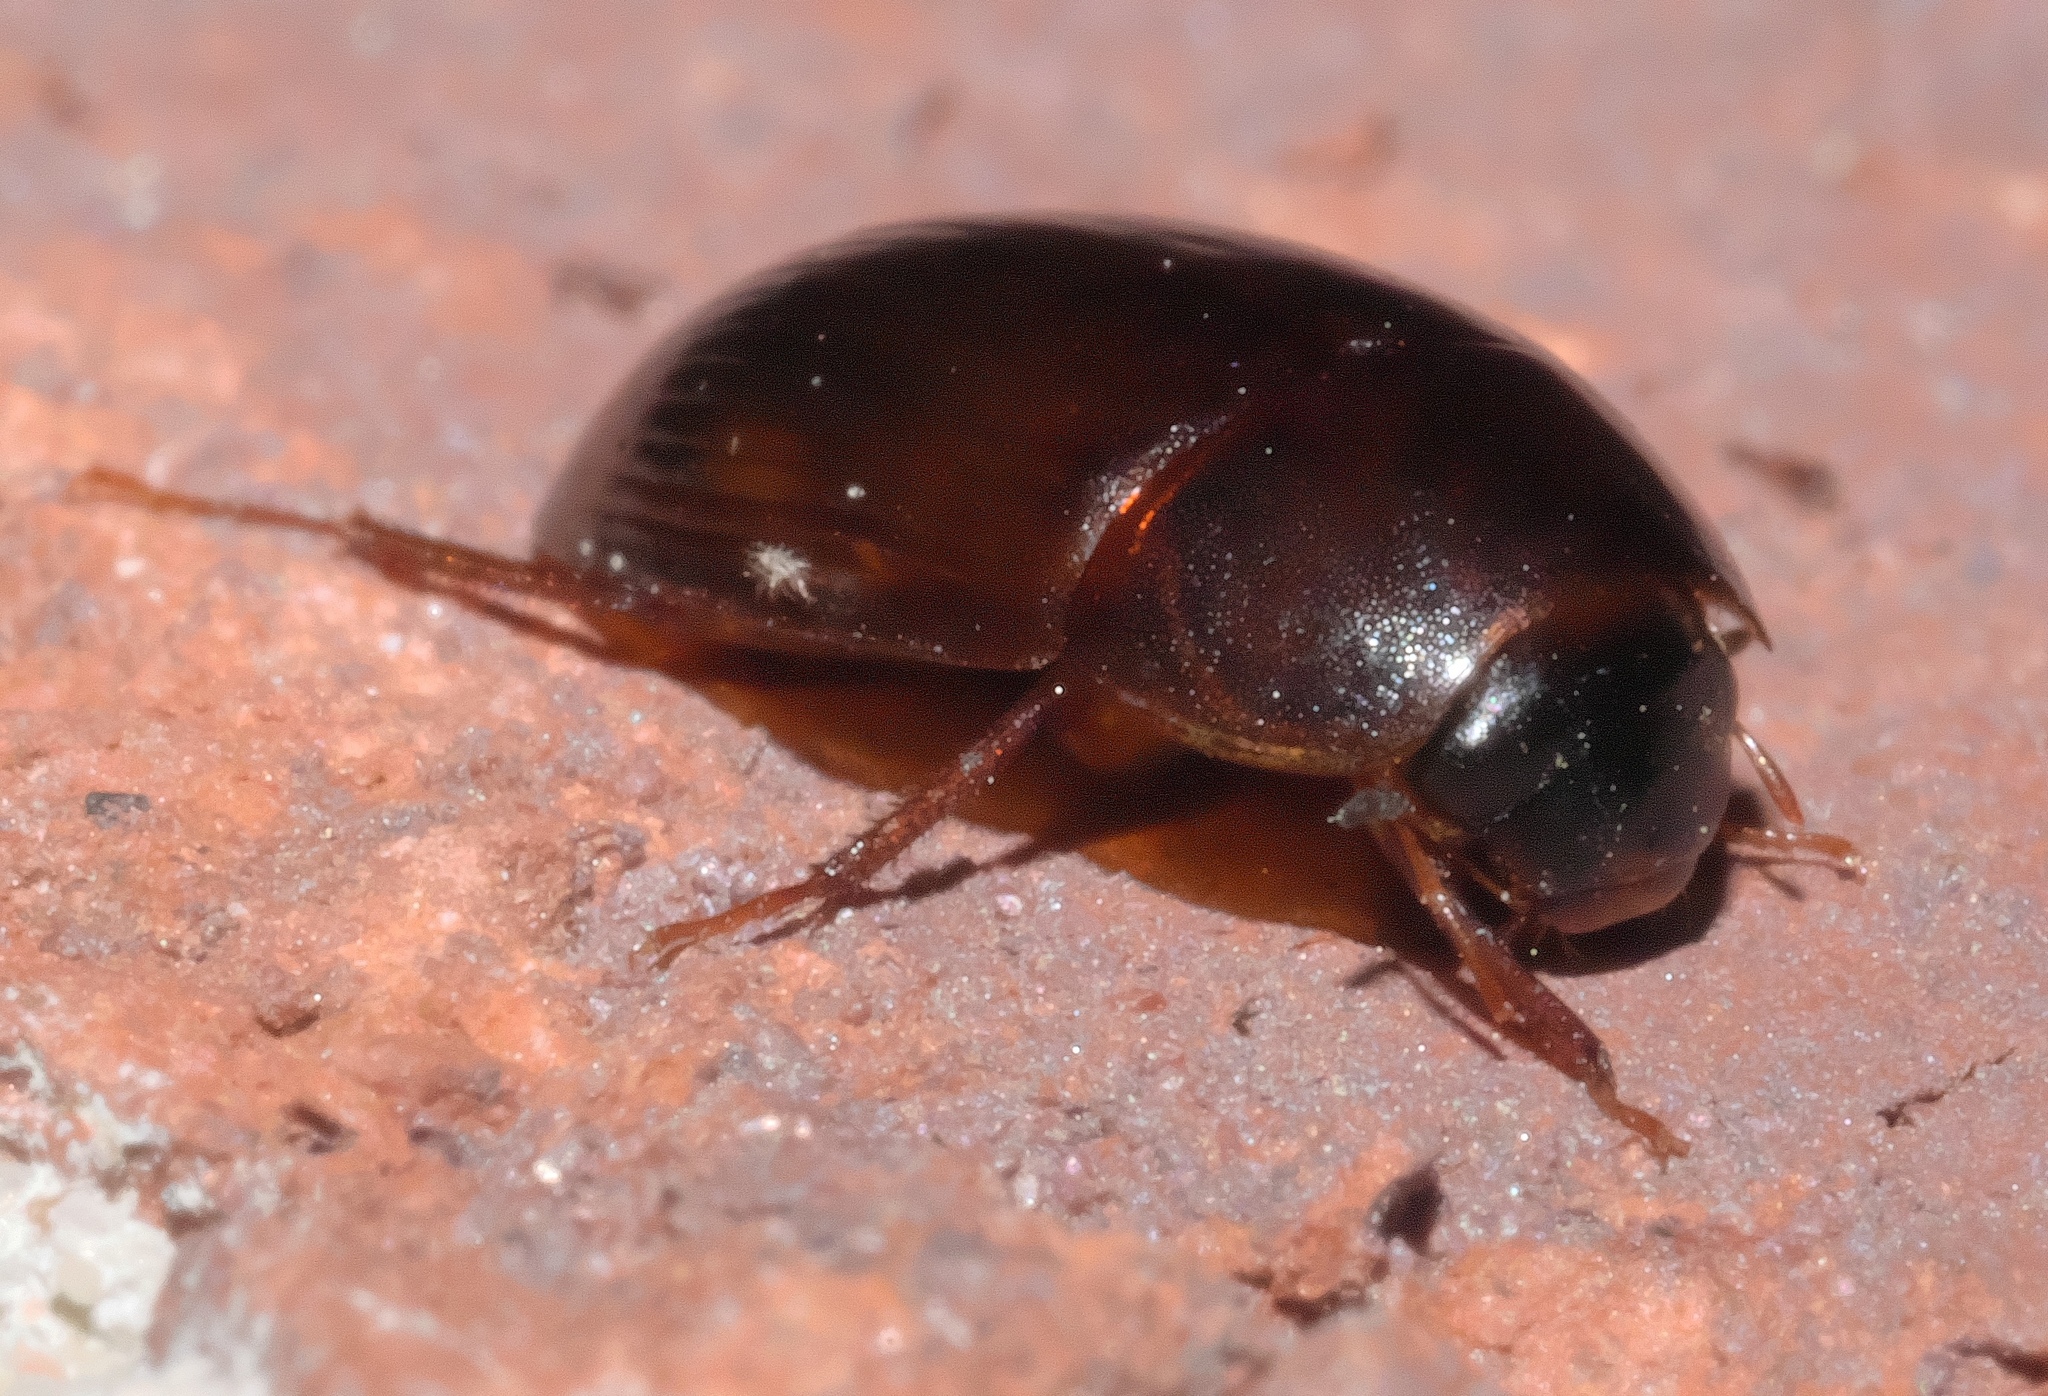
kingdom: Animalia
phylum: Arthropoda
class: Insecta
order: Coleoptera
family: Hydrophilidae
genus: Cymbiodyta
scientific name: Cymbiodyta bifida
